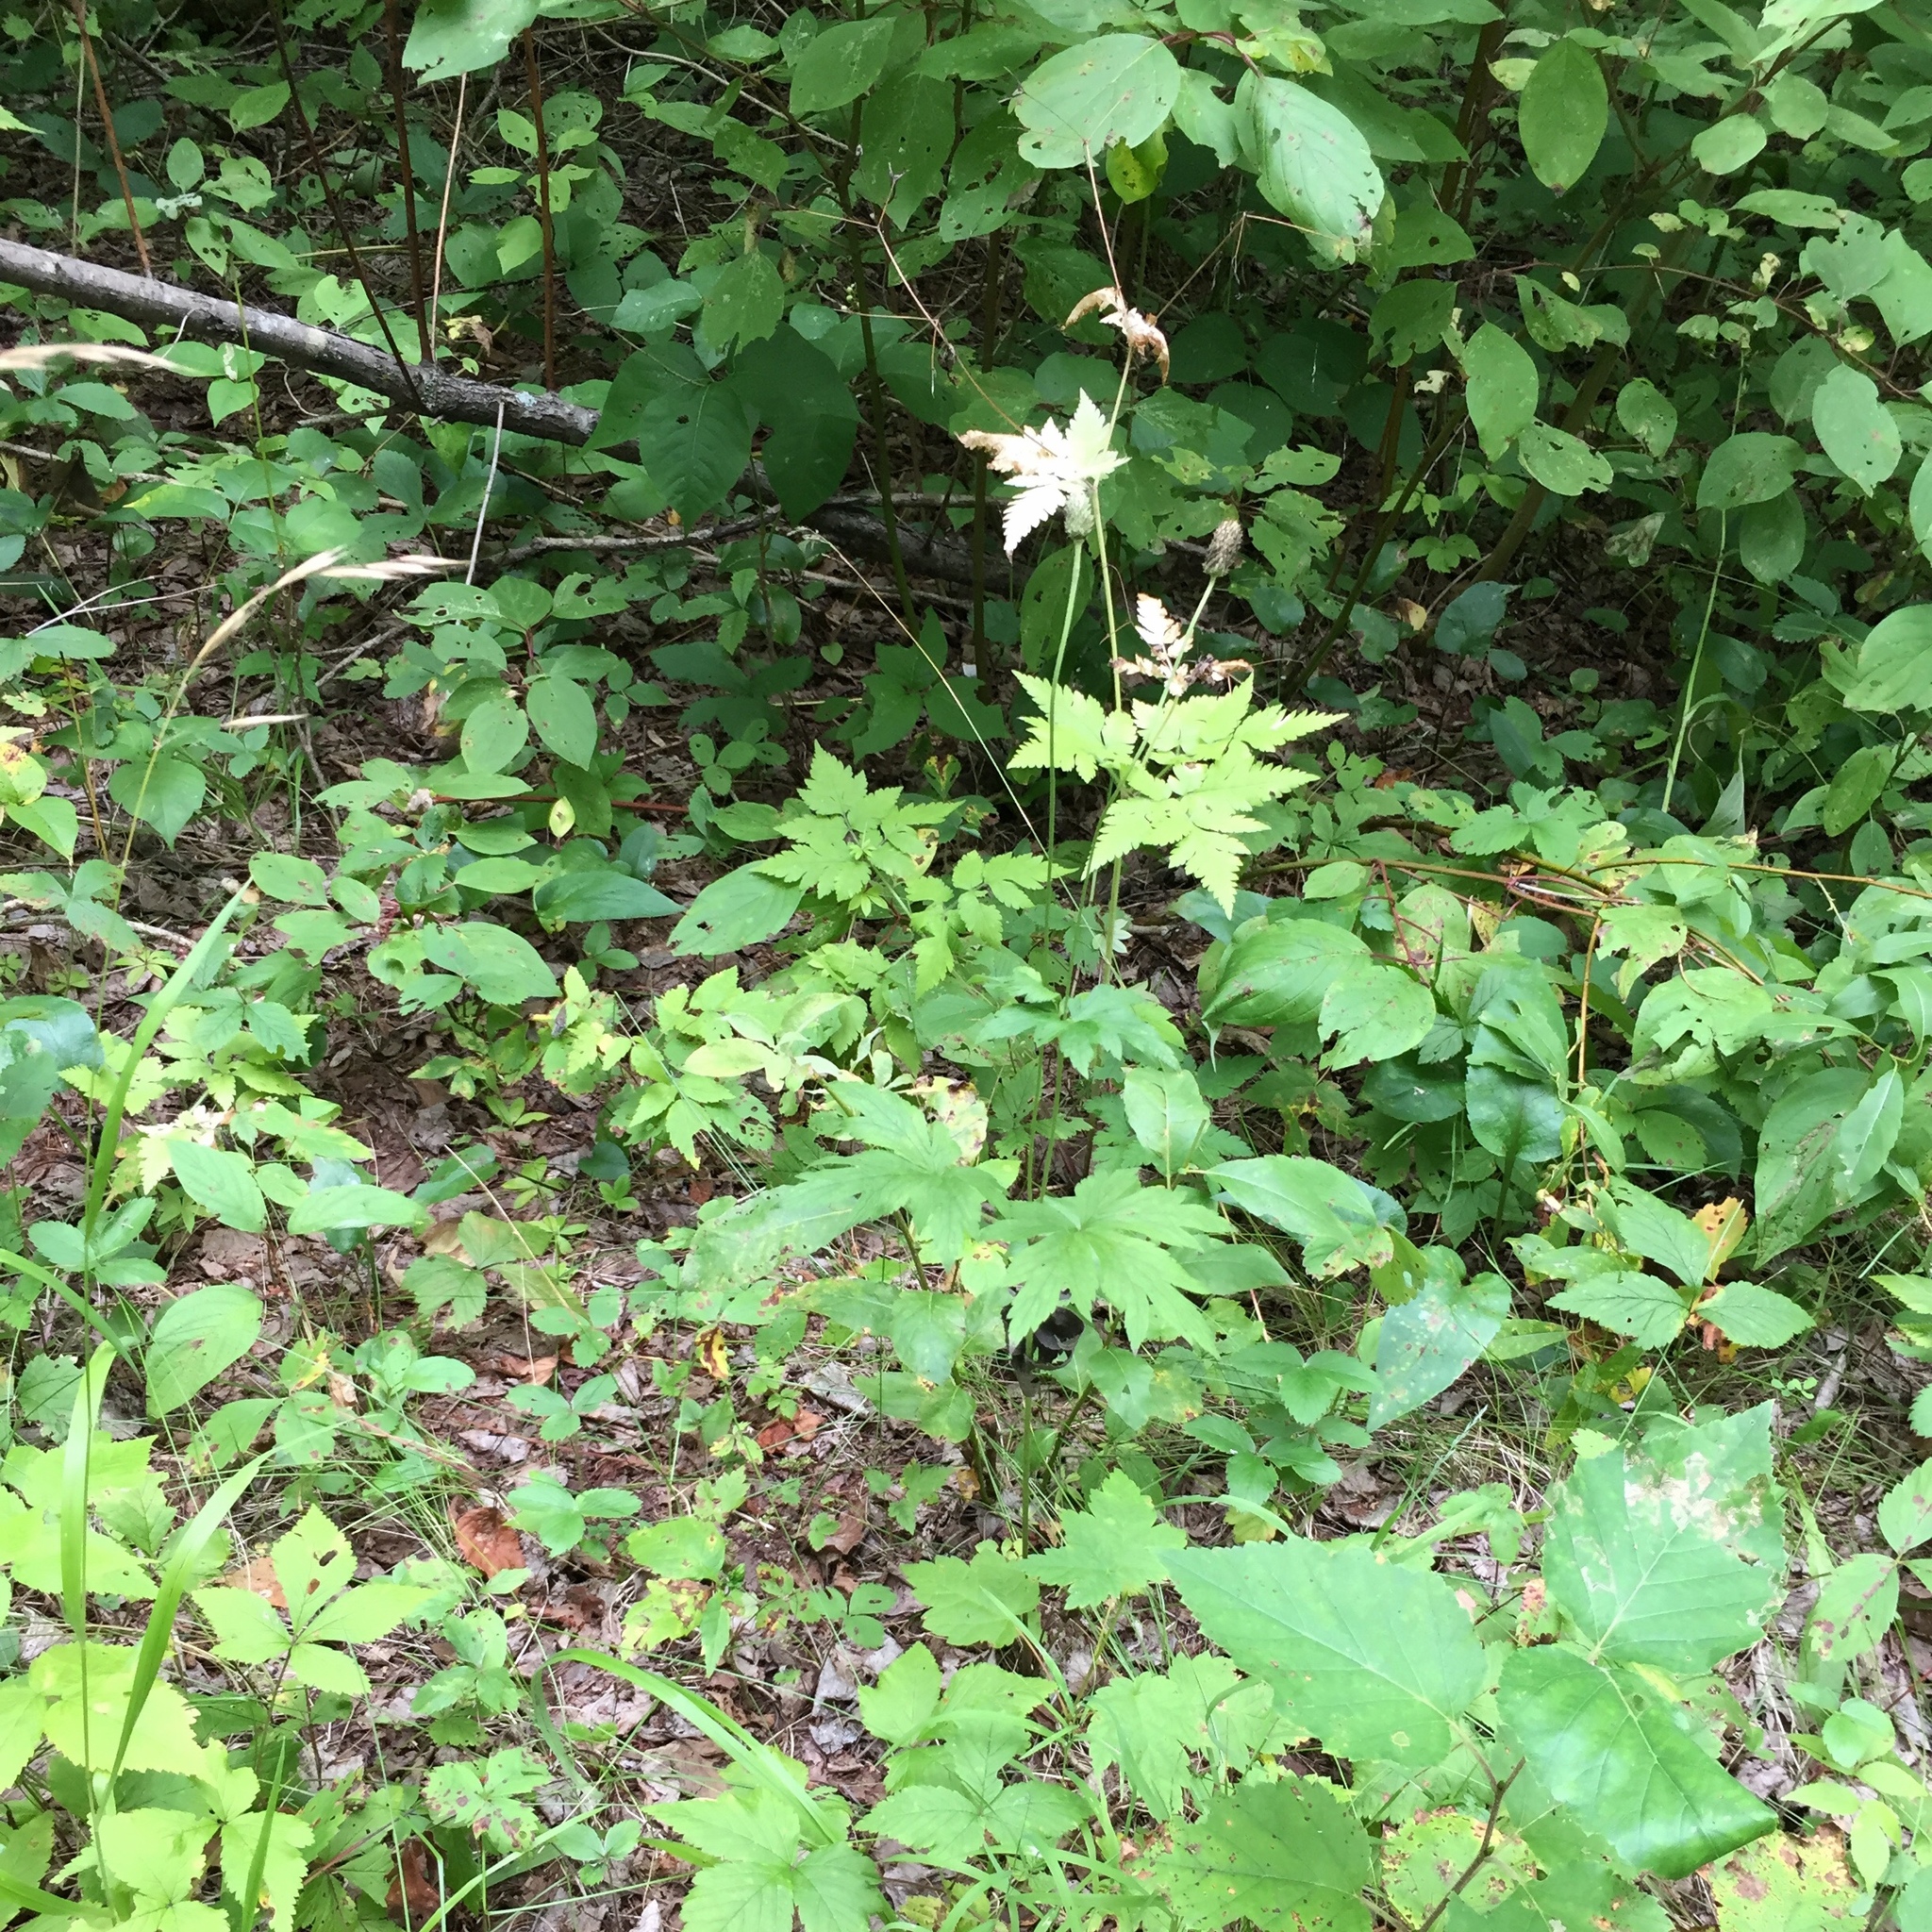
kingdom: Plantae
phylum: Tracheophyta
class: Magnoliopsida
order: Ranunculales
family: Ranunculaceae
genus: Anemone
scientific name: Anemone virginiana
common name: Tall anemone
